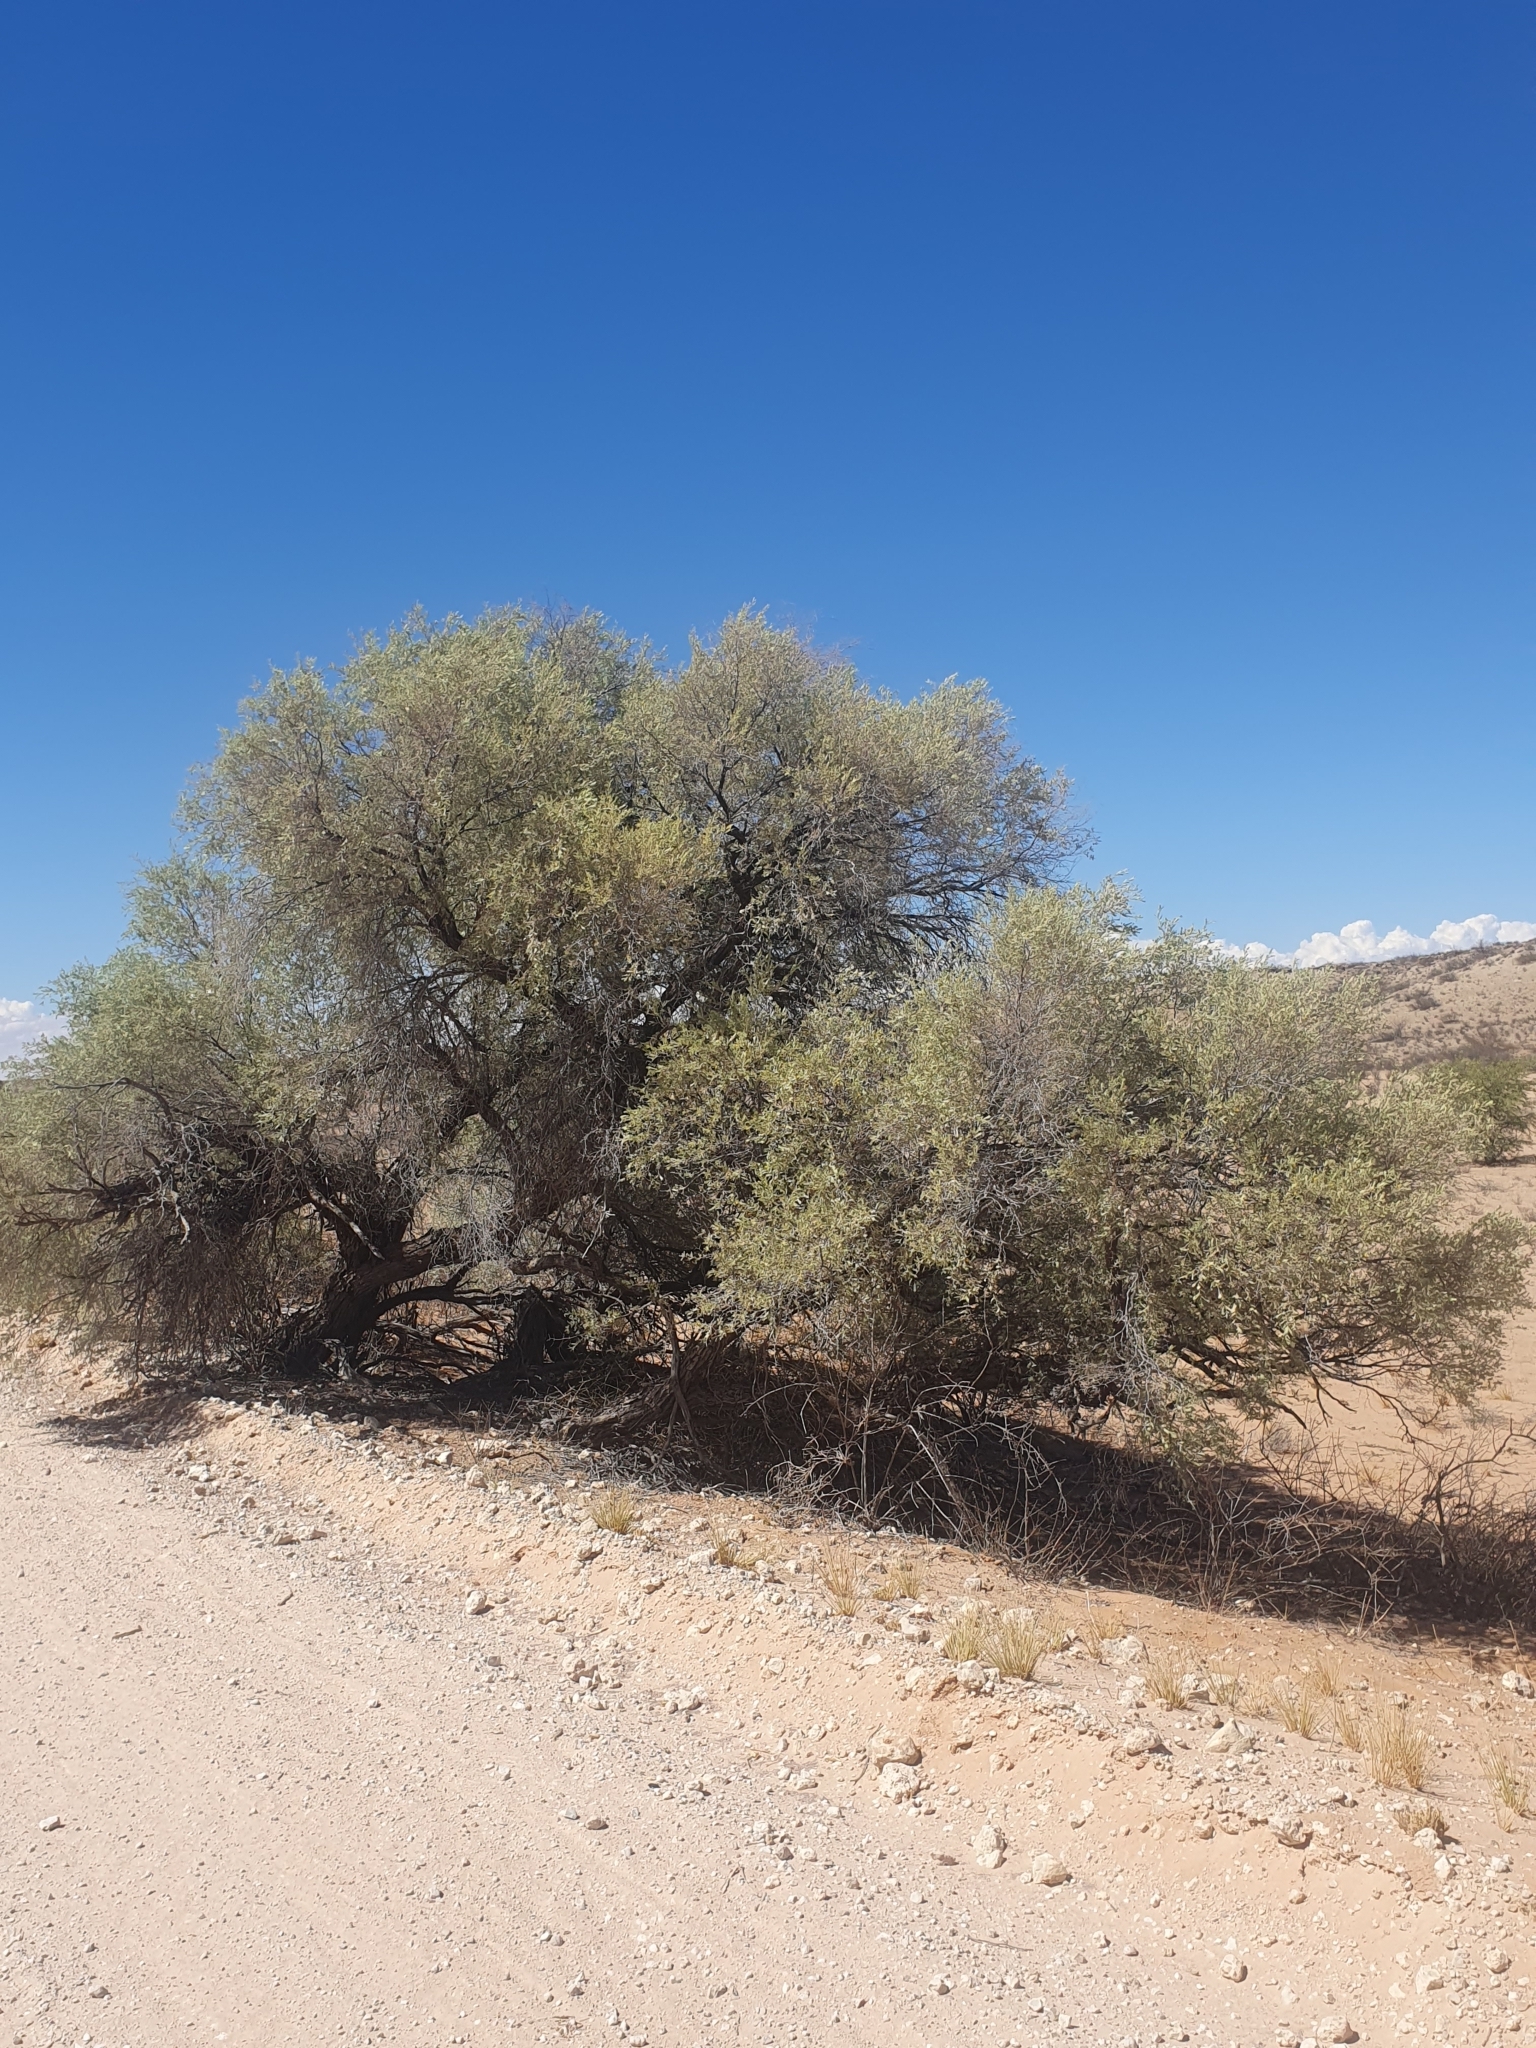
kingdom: Plantae
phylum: Tracheophyta
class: Magnoliopsida
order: Fabales
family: Fabaceae
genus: Vachellia
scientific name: Vachellia haematoxylon
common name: Grey camel thorn
